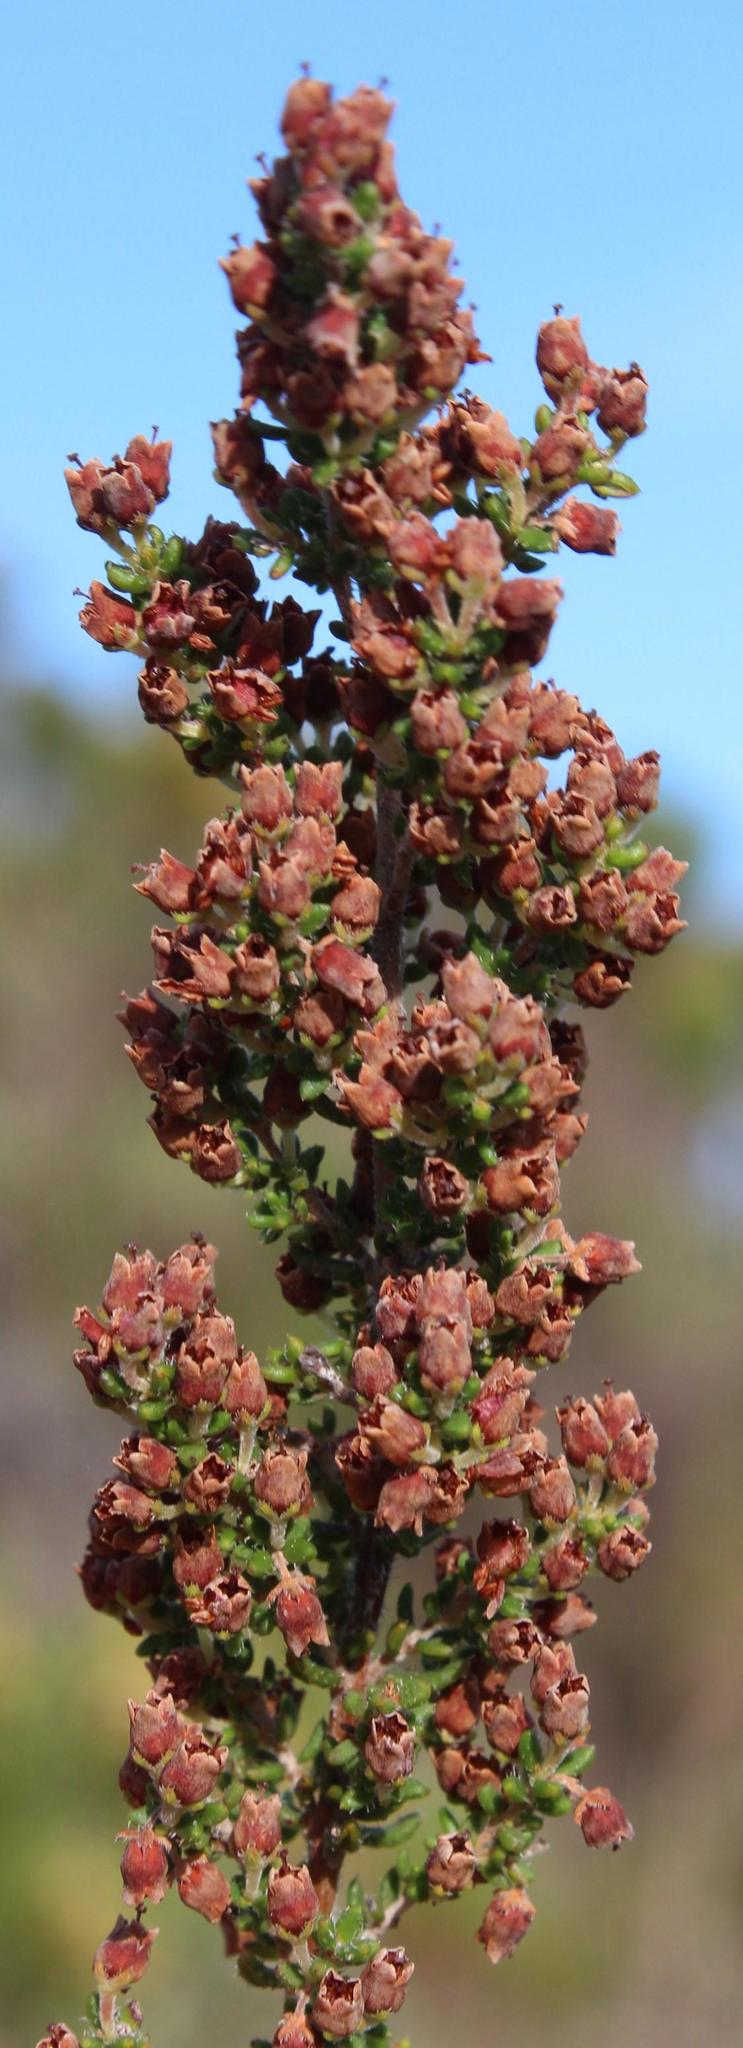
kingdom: Plantae
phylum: Tracheophyta
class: Magnoliopsida
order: Ericales
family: Ericaceae
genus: Erica
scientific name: Erica hispiduloides
